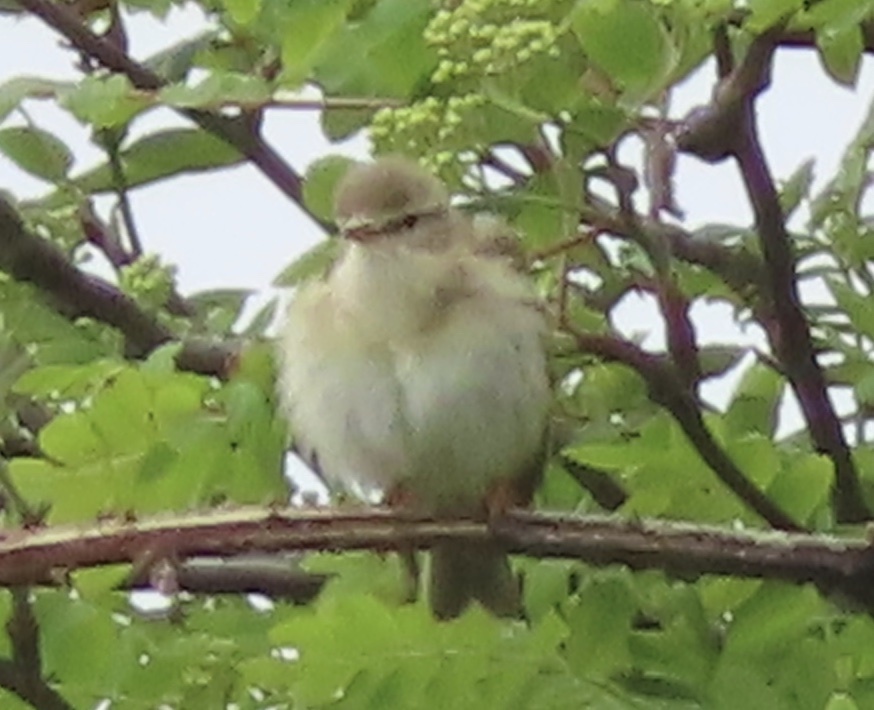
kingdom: Animalia
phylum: Chordata
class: Aves
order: Passeriformes
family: Phylloscopidae
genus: Phylloscopus
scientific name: Phylloscopus trochilus
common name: Willow warbler
